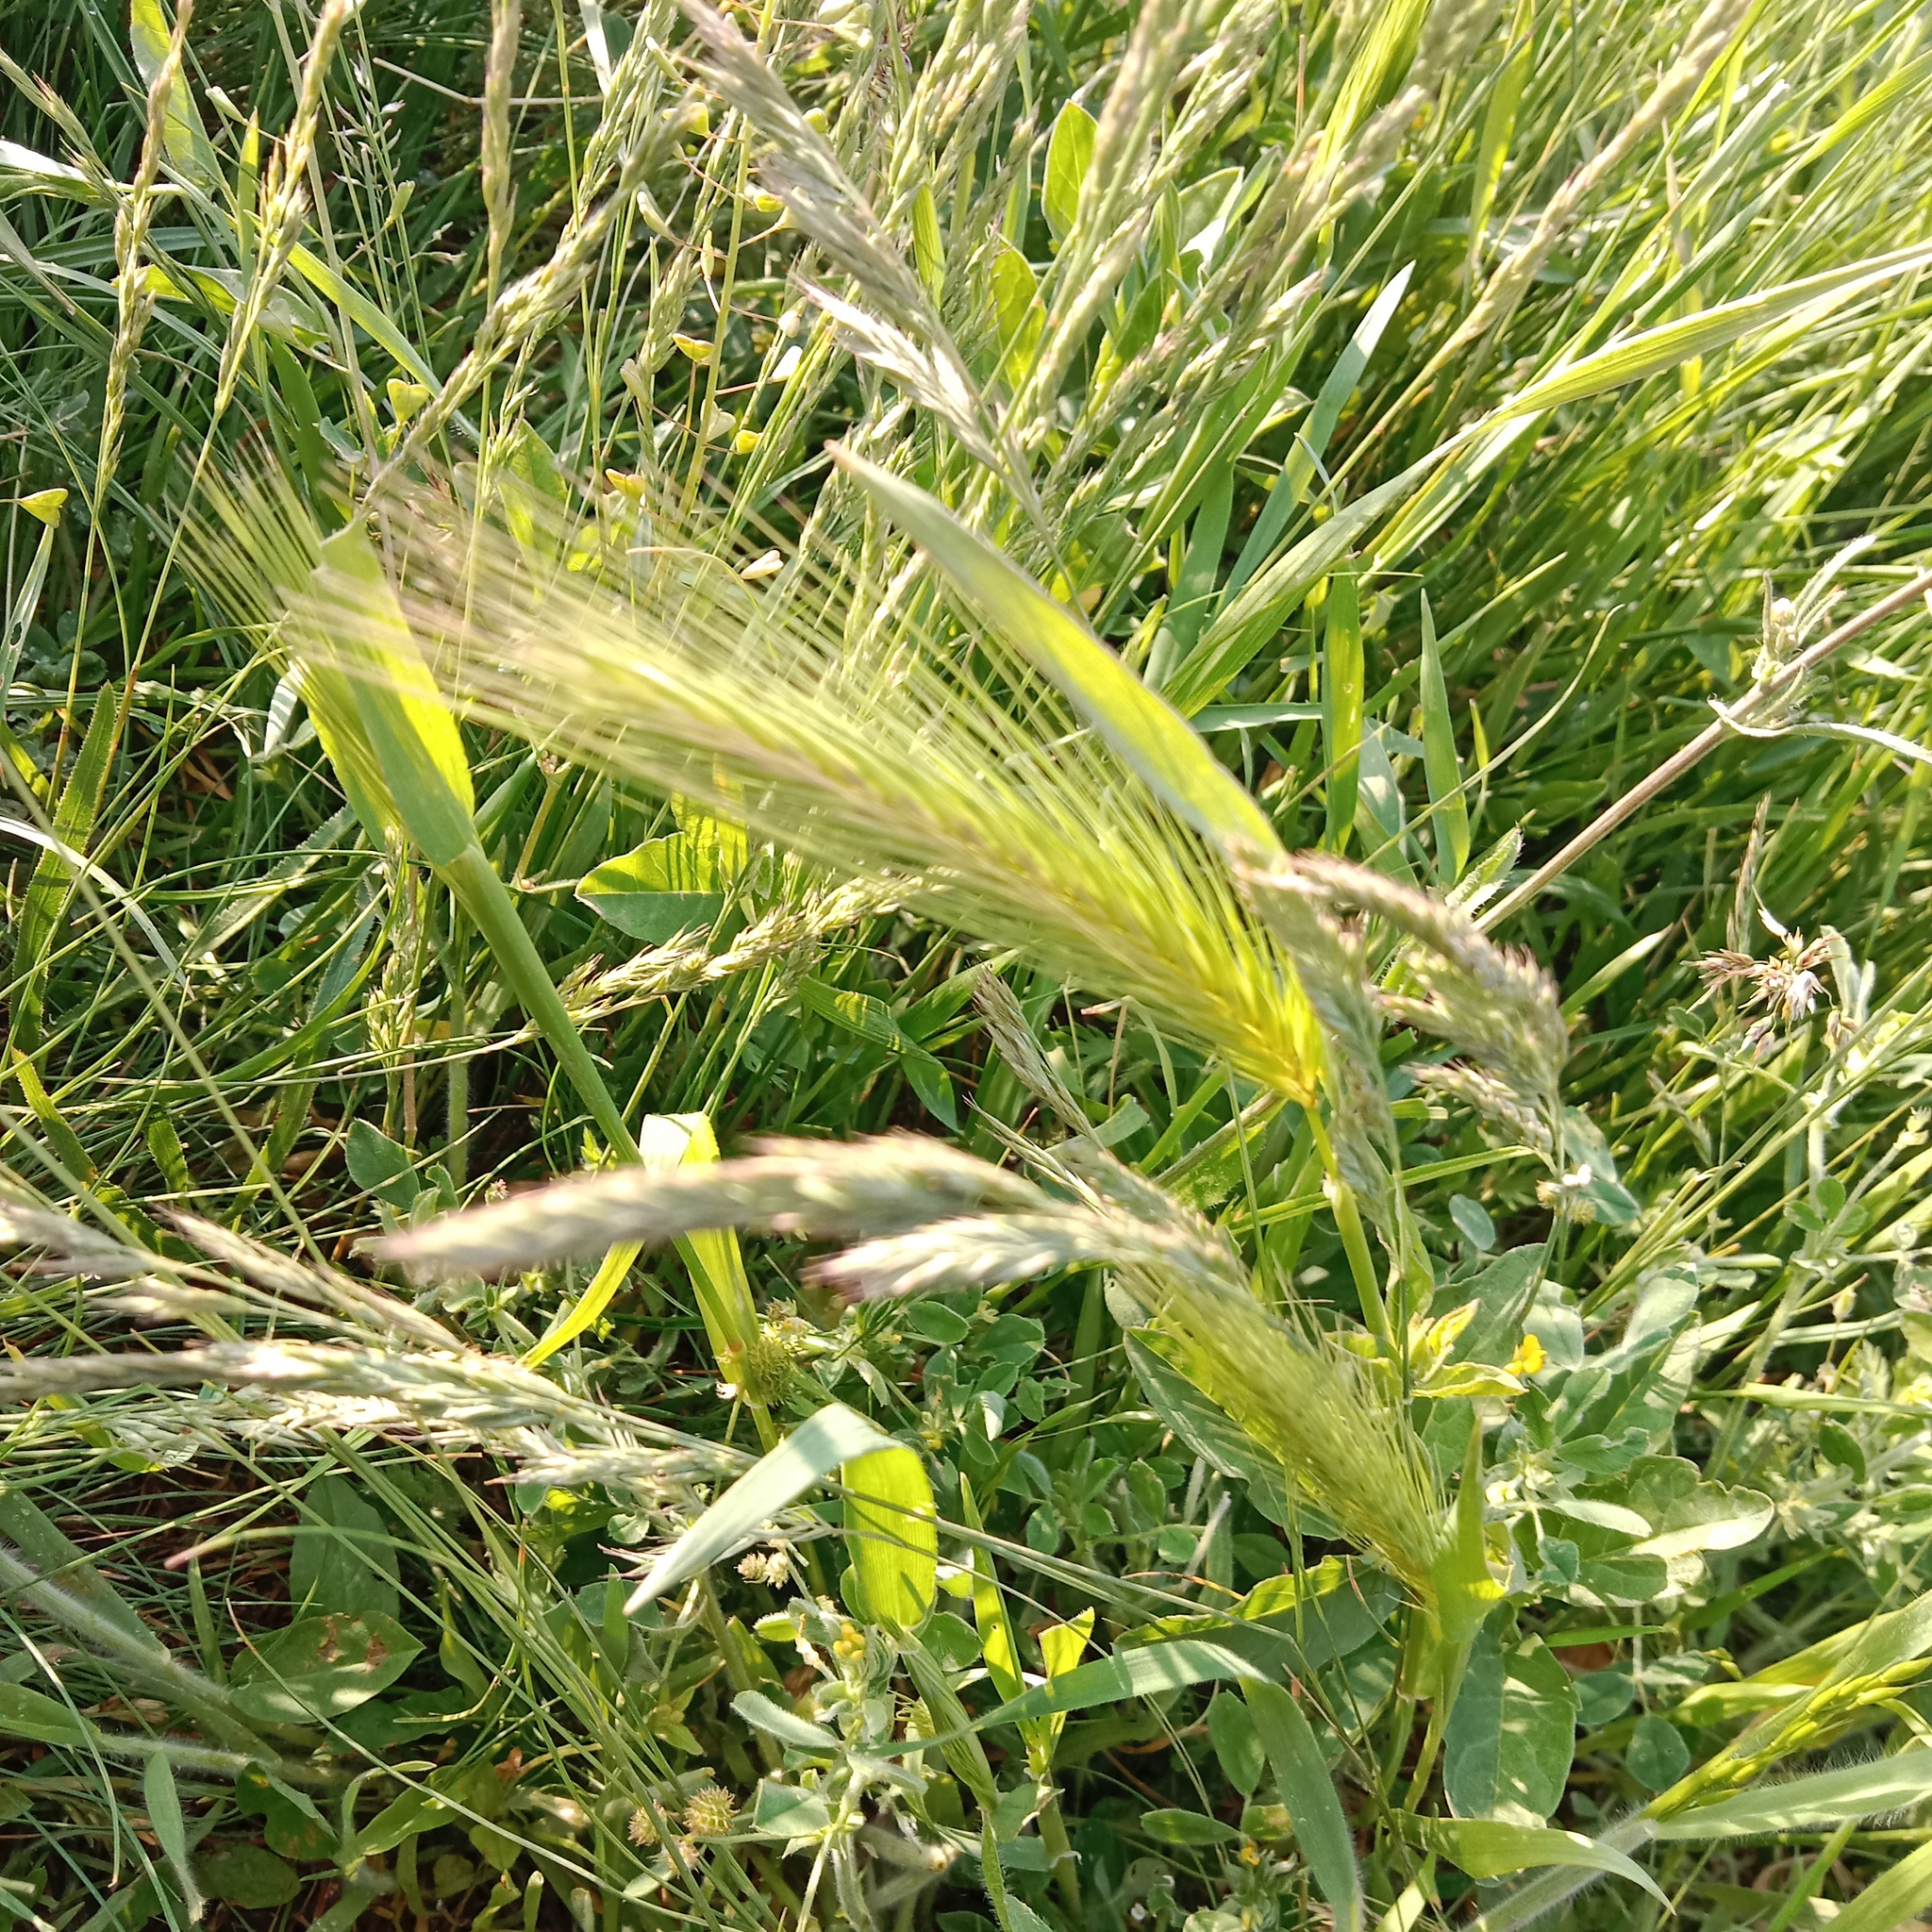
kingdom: Plantae
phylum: Tracheophyta
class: Liliopsida
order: Poales
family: Poaceae
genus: Hordeum
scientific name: Hordeum murinum
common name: Wall barley
